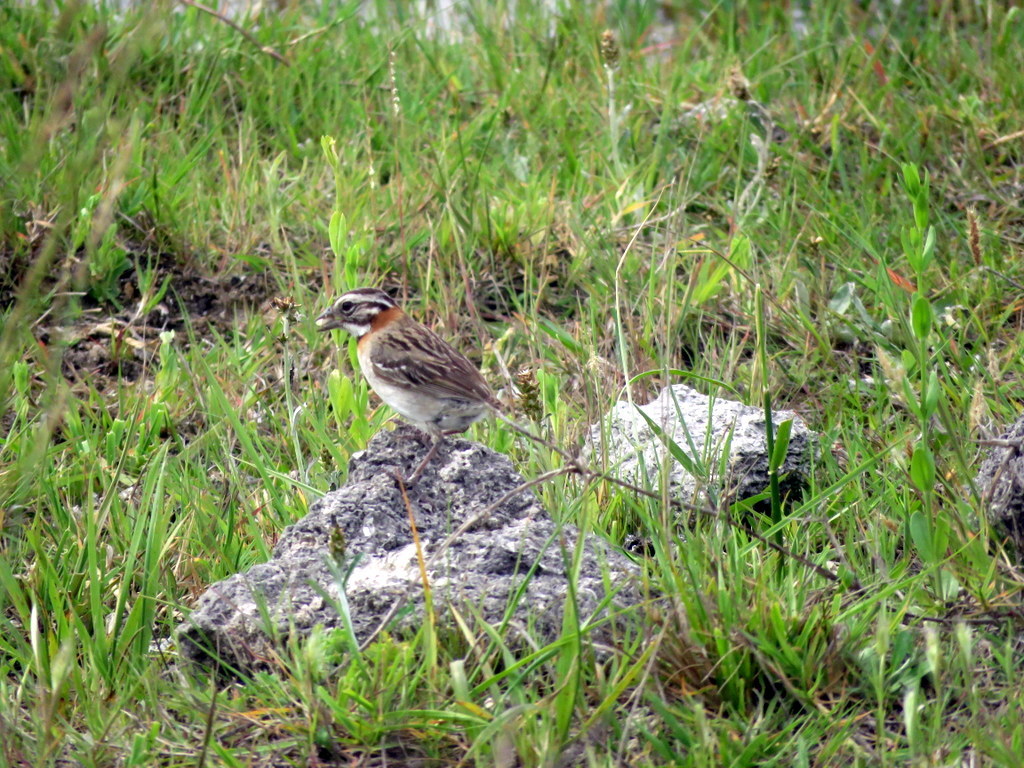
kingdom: Animalia
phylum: Chordata
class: Aves
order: Passeriformes
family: Passerellidae
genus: Zonotrichia
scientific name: Zonotrichia capensis
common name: Rufous-collared sparrow
